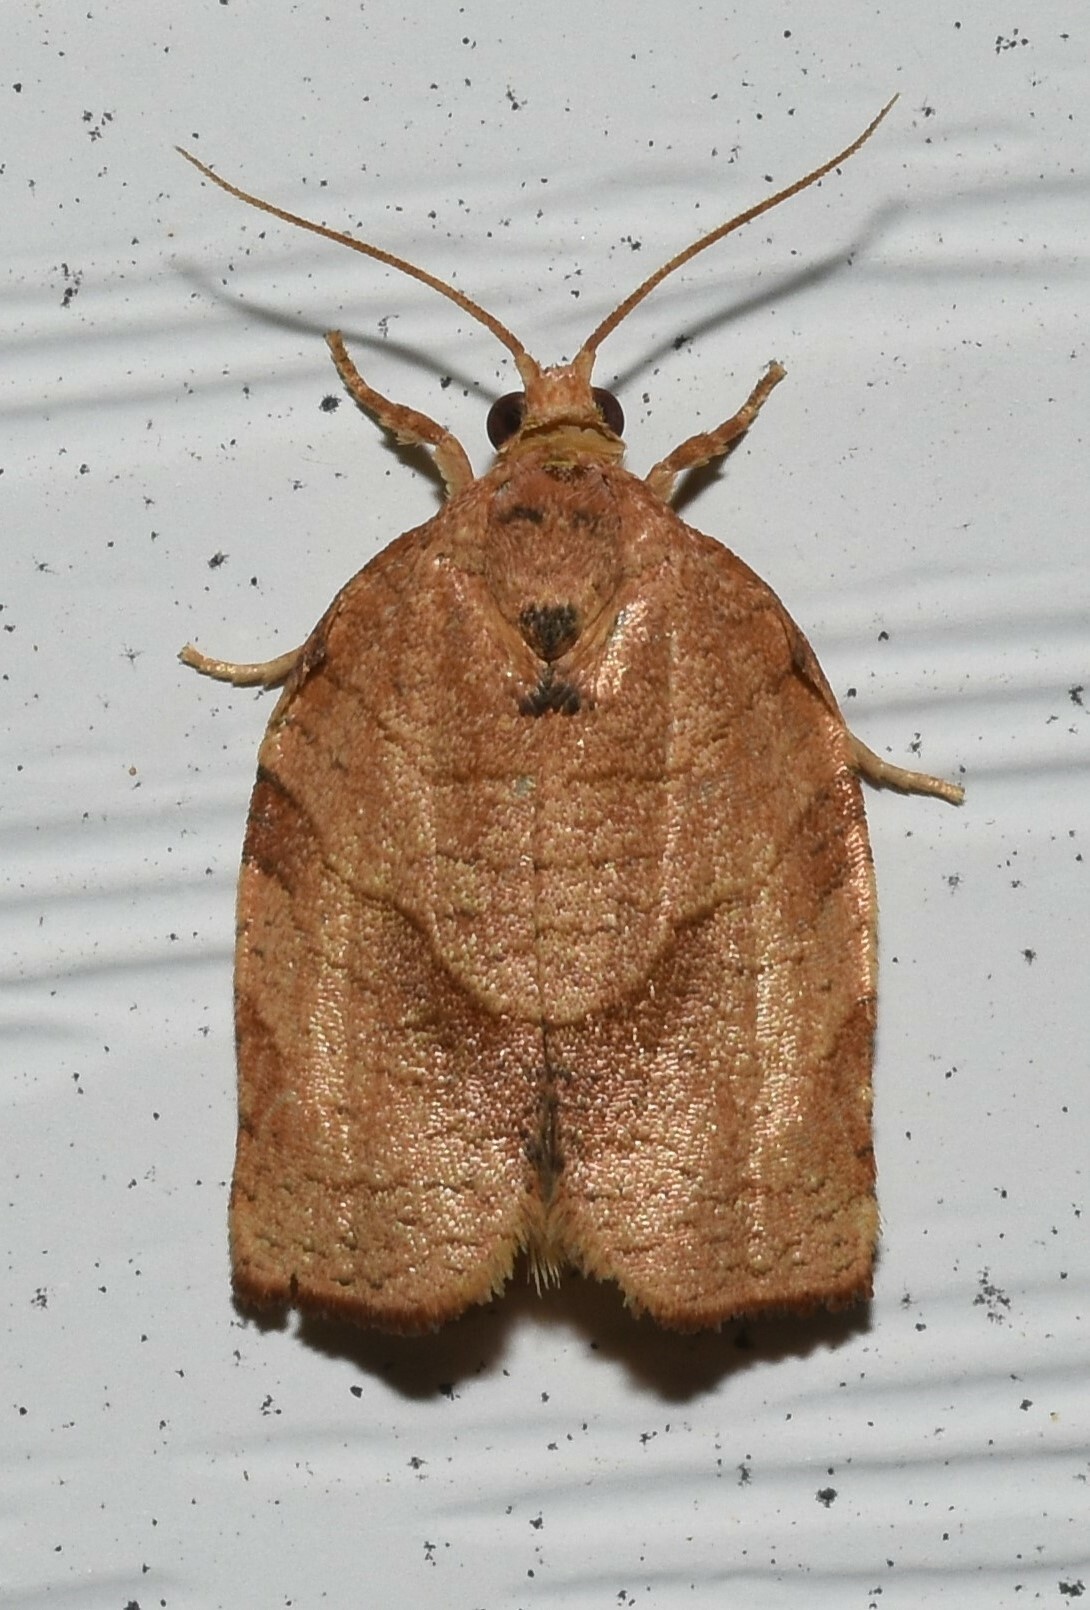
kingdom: Animalia
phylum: Arthropoda
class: Insecta
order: Lepidoptera
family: Tortricidae
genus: Choristoneura
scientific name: Choristoneura rosaceana
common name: Oblique-banded leafroller moth
